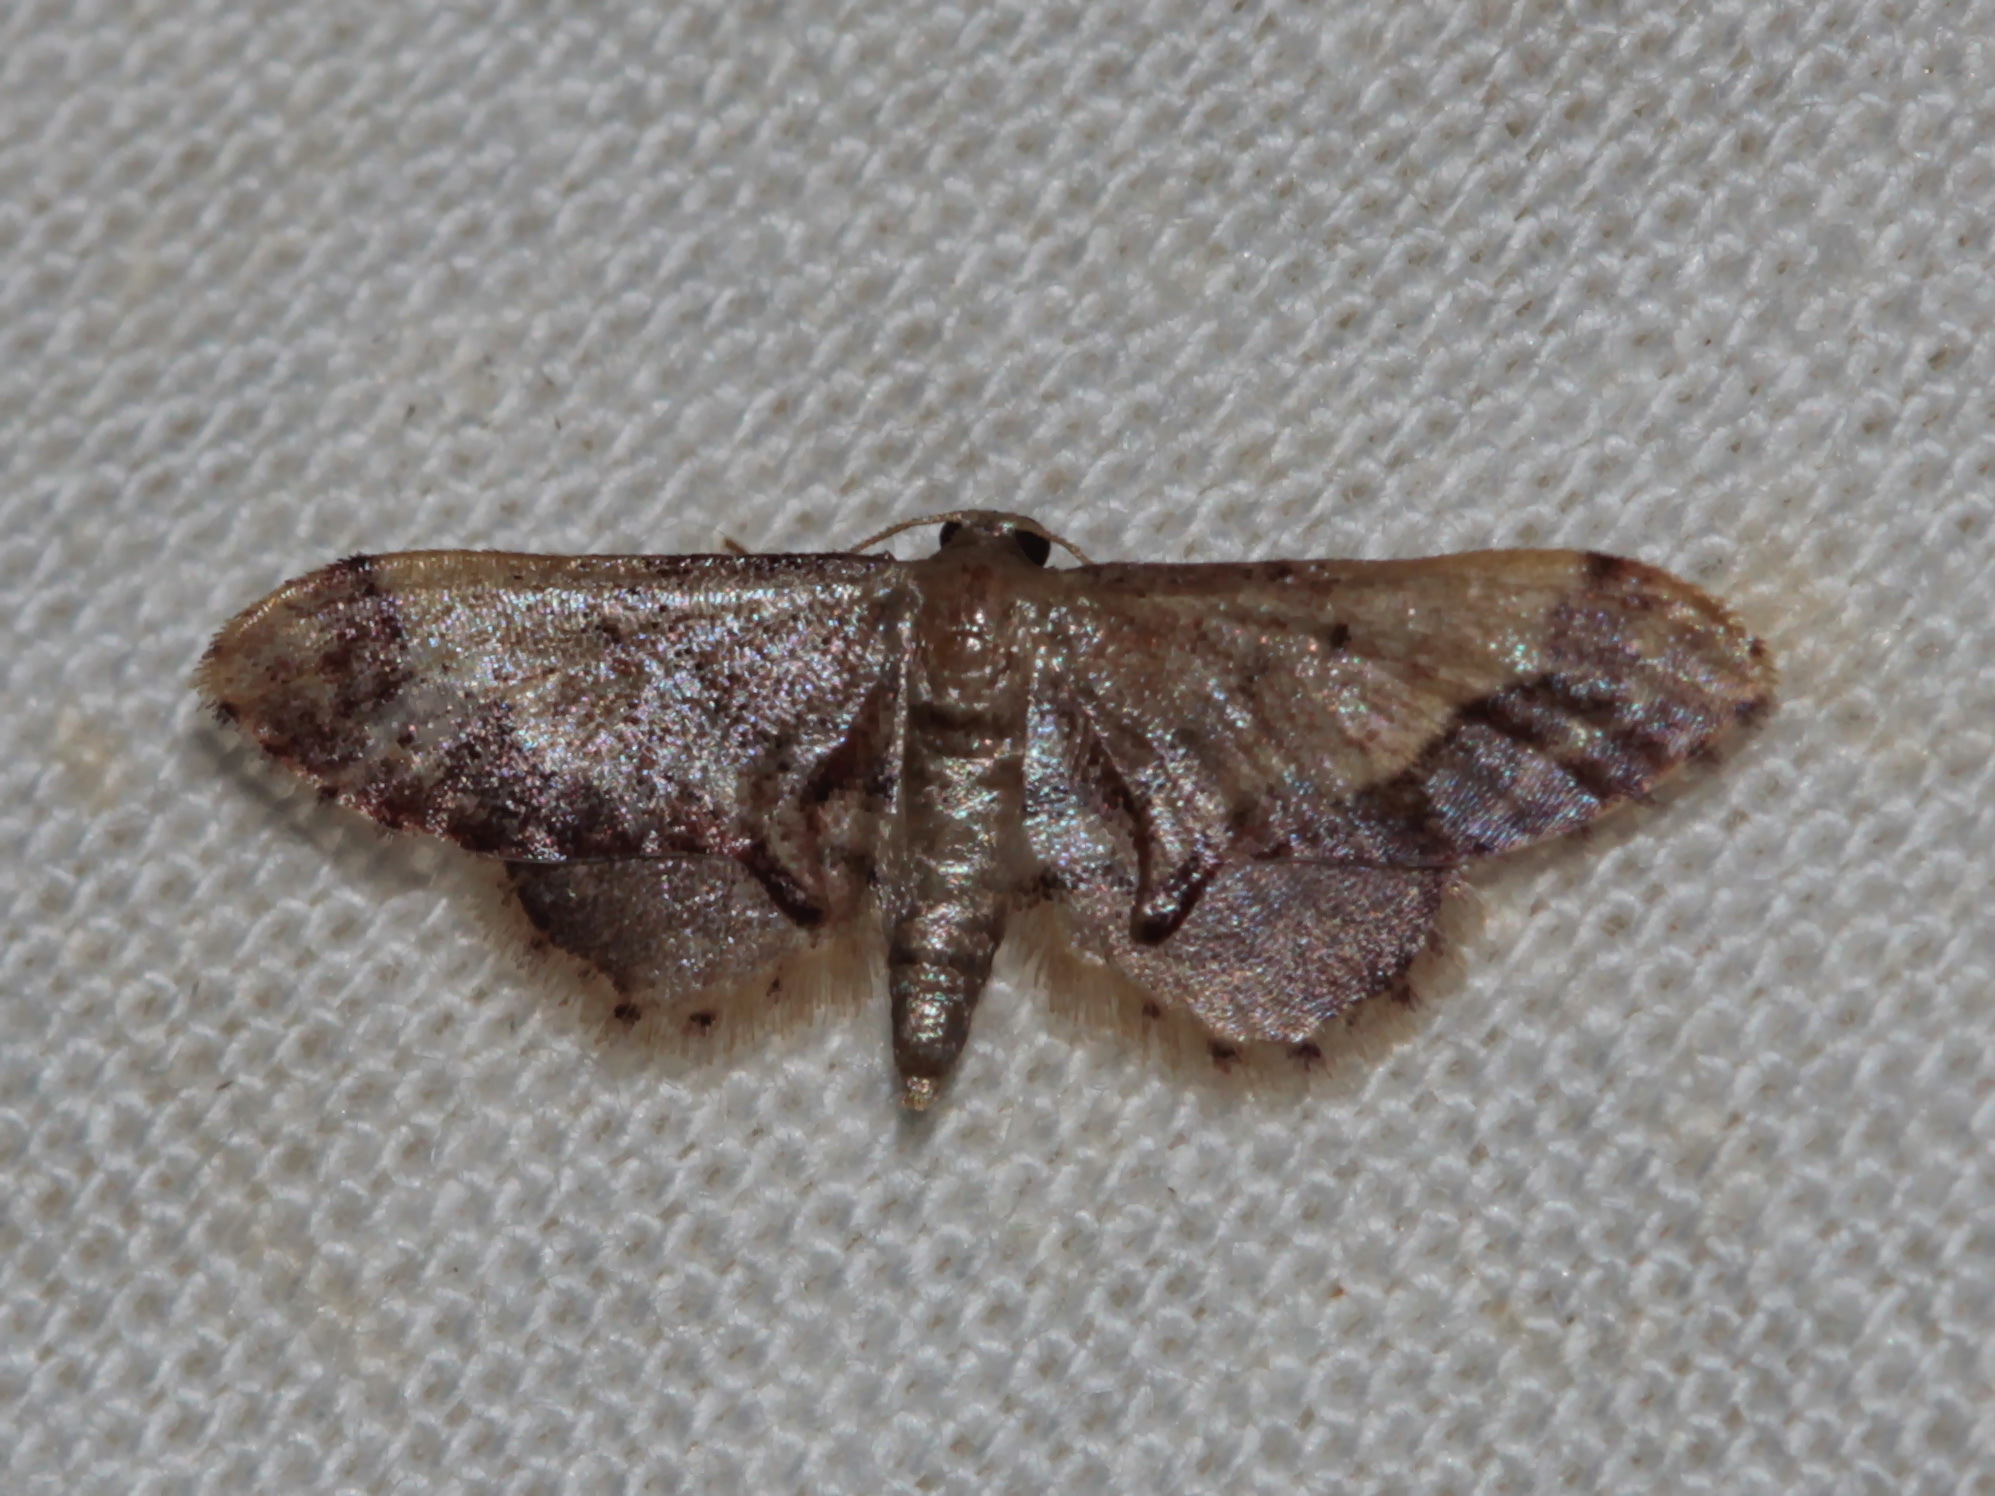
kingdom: Animalia
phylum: Arthropoda
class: Insecta
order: Lepidoptera
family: Geometridae
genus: Idaea
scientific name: Idaea violacea
